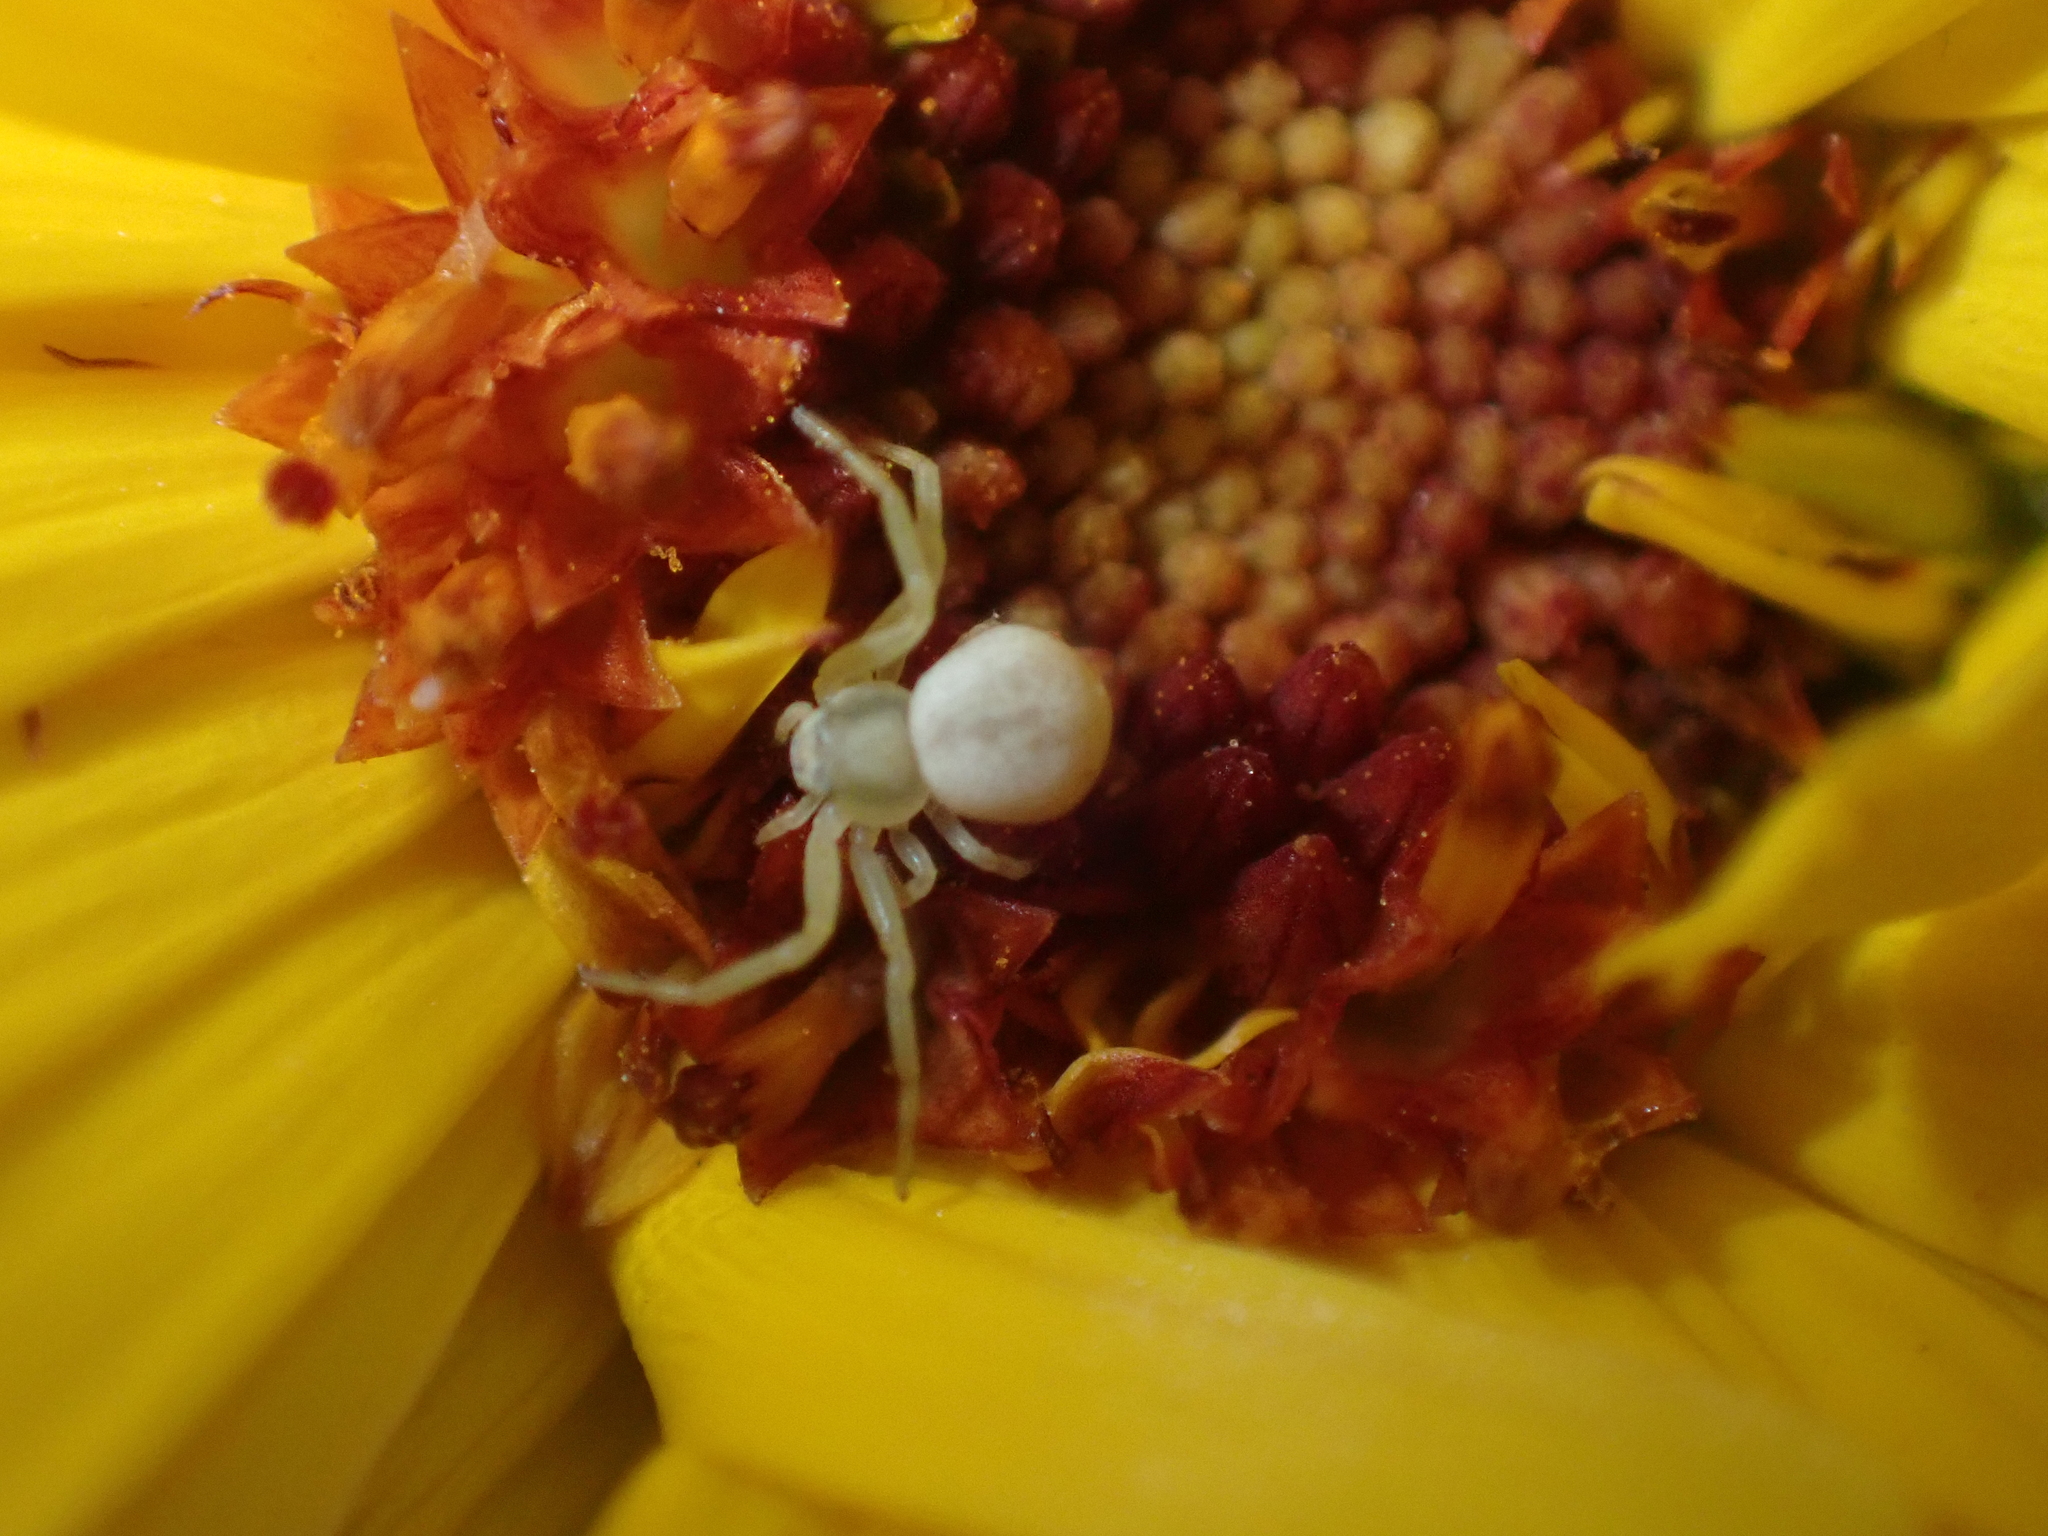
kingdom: Animalia
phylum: Arthropoda
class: Arachnida
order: Araneae
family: Thomisidae
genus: Misumena
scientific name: Misumena vatia
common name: Goldenrod crab spider
